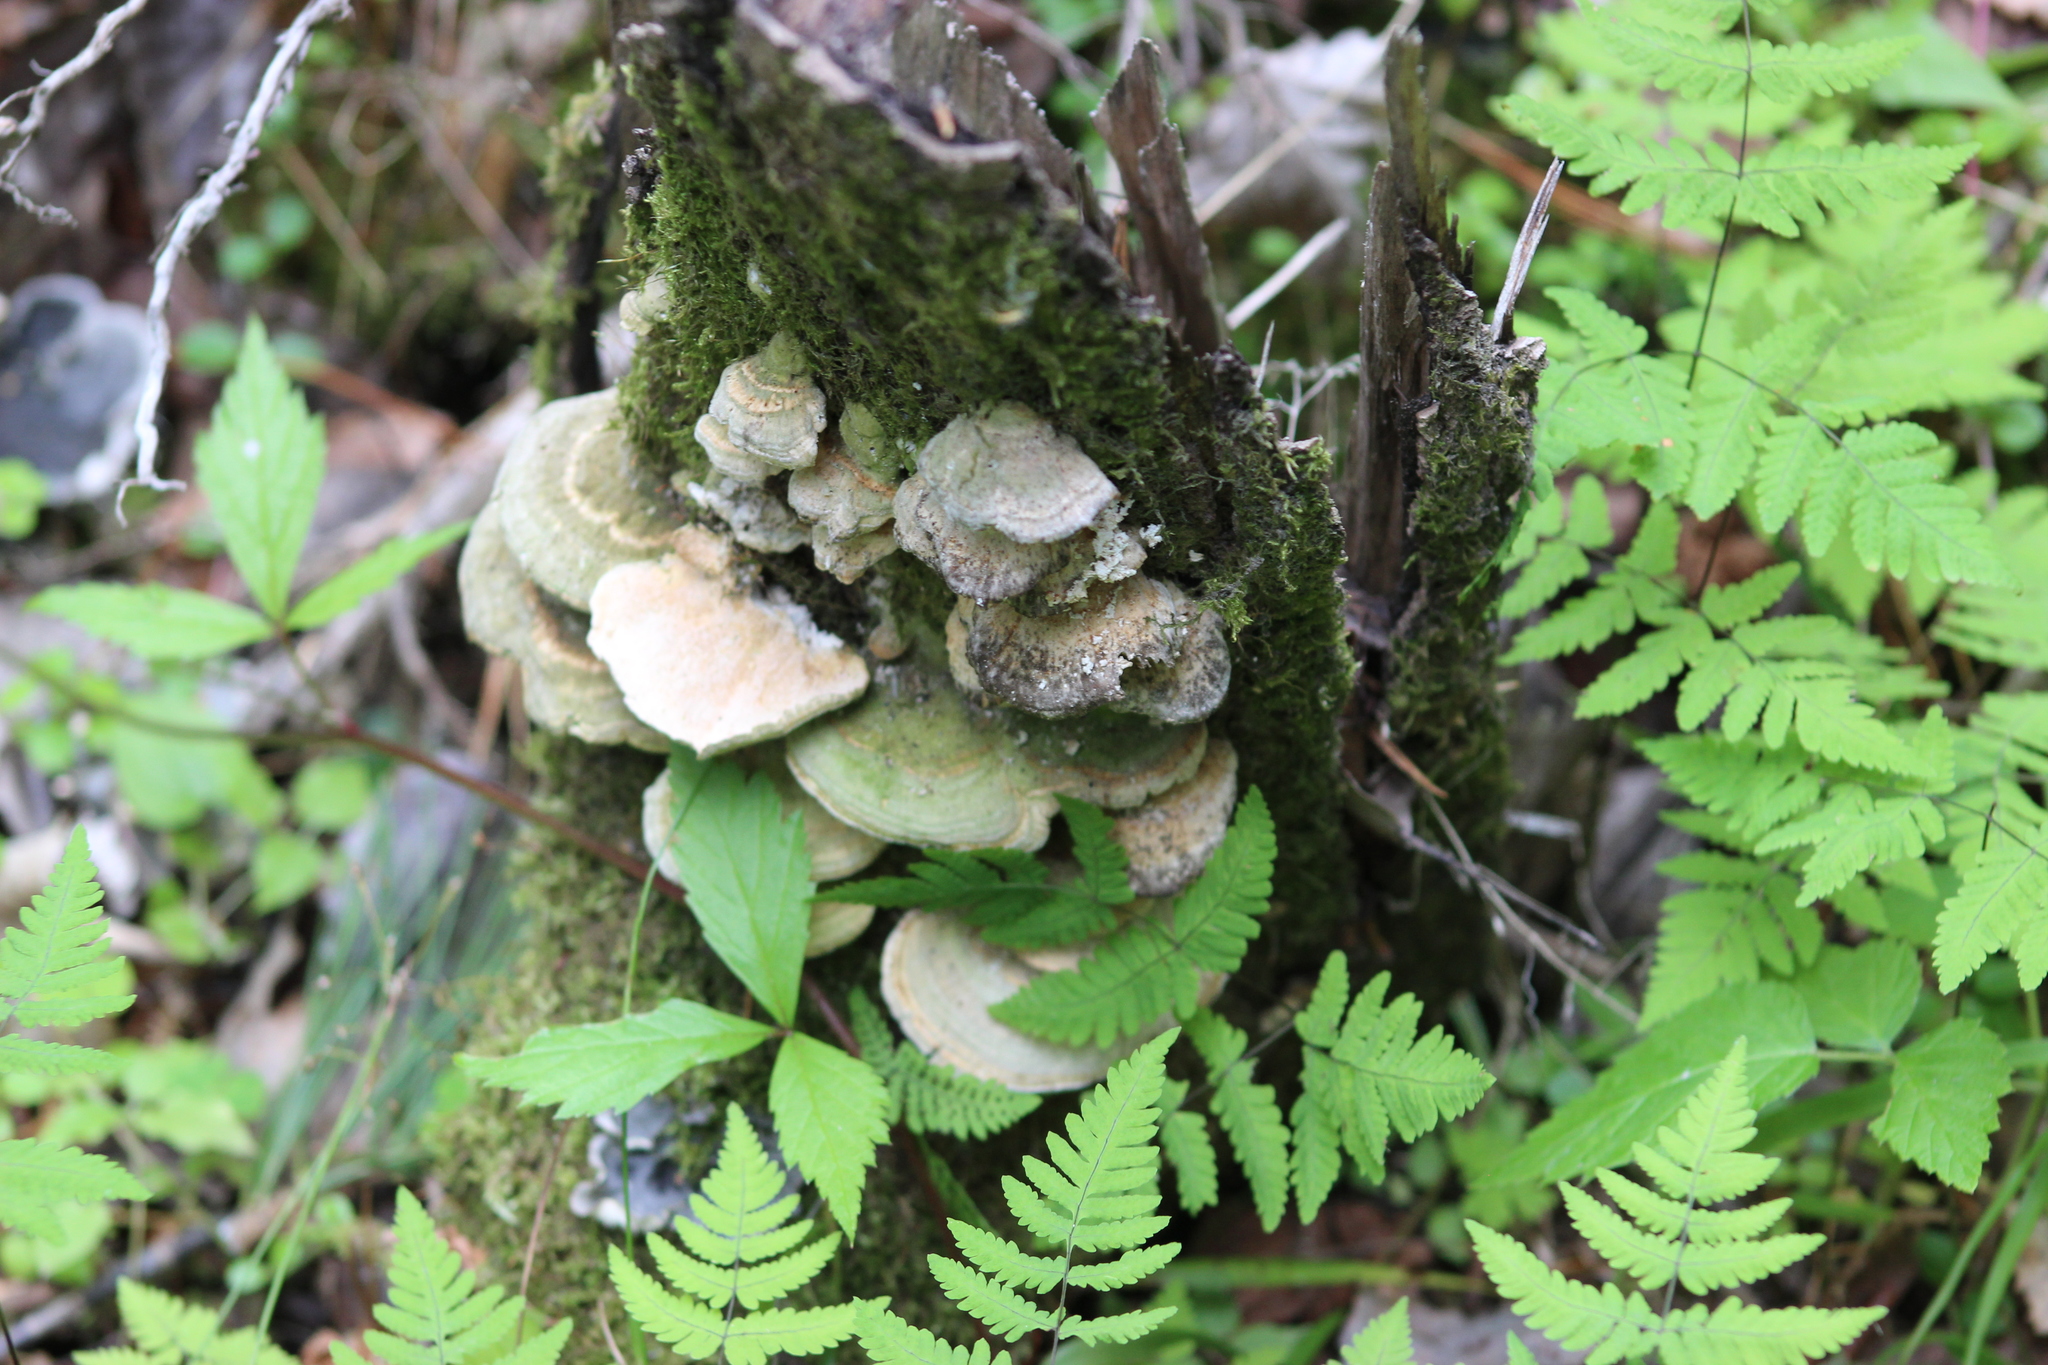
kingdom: Fungi
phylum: Basidiomycota
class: Agaricomycetes
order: Polyporales
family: Polyporaceae
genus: Trametes
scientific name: Trametes ochracea
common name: Ochre bracket
